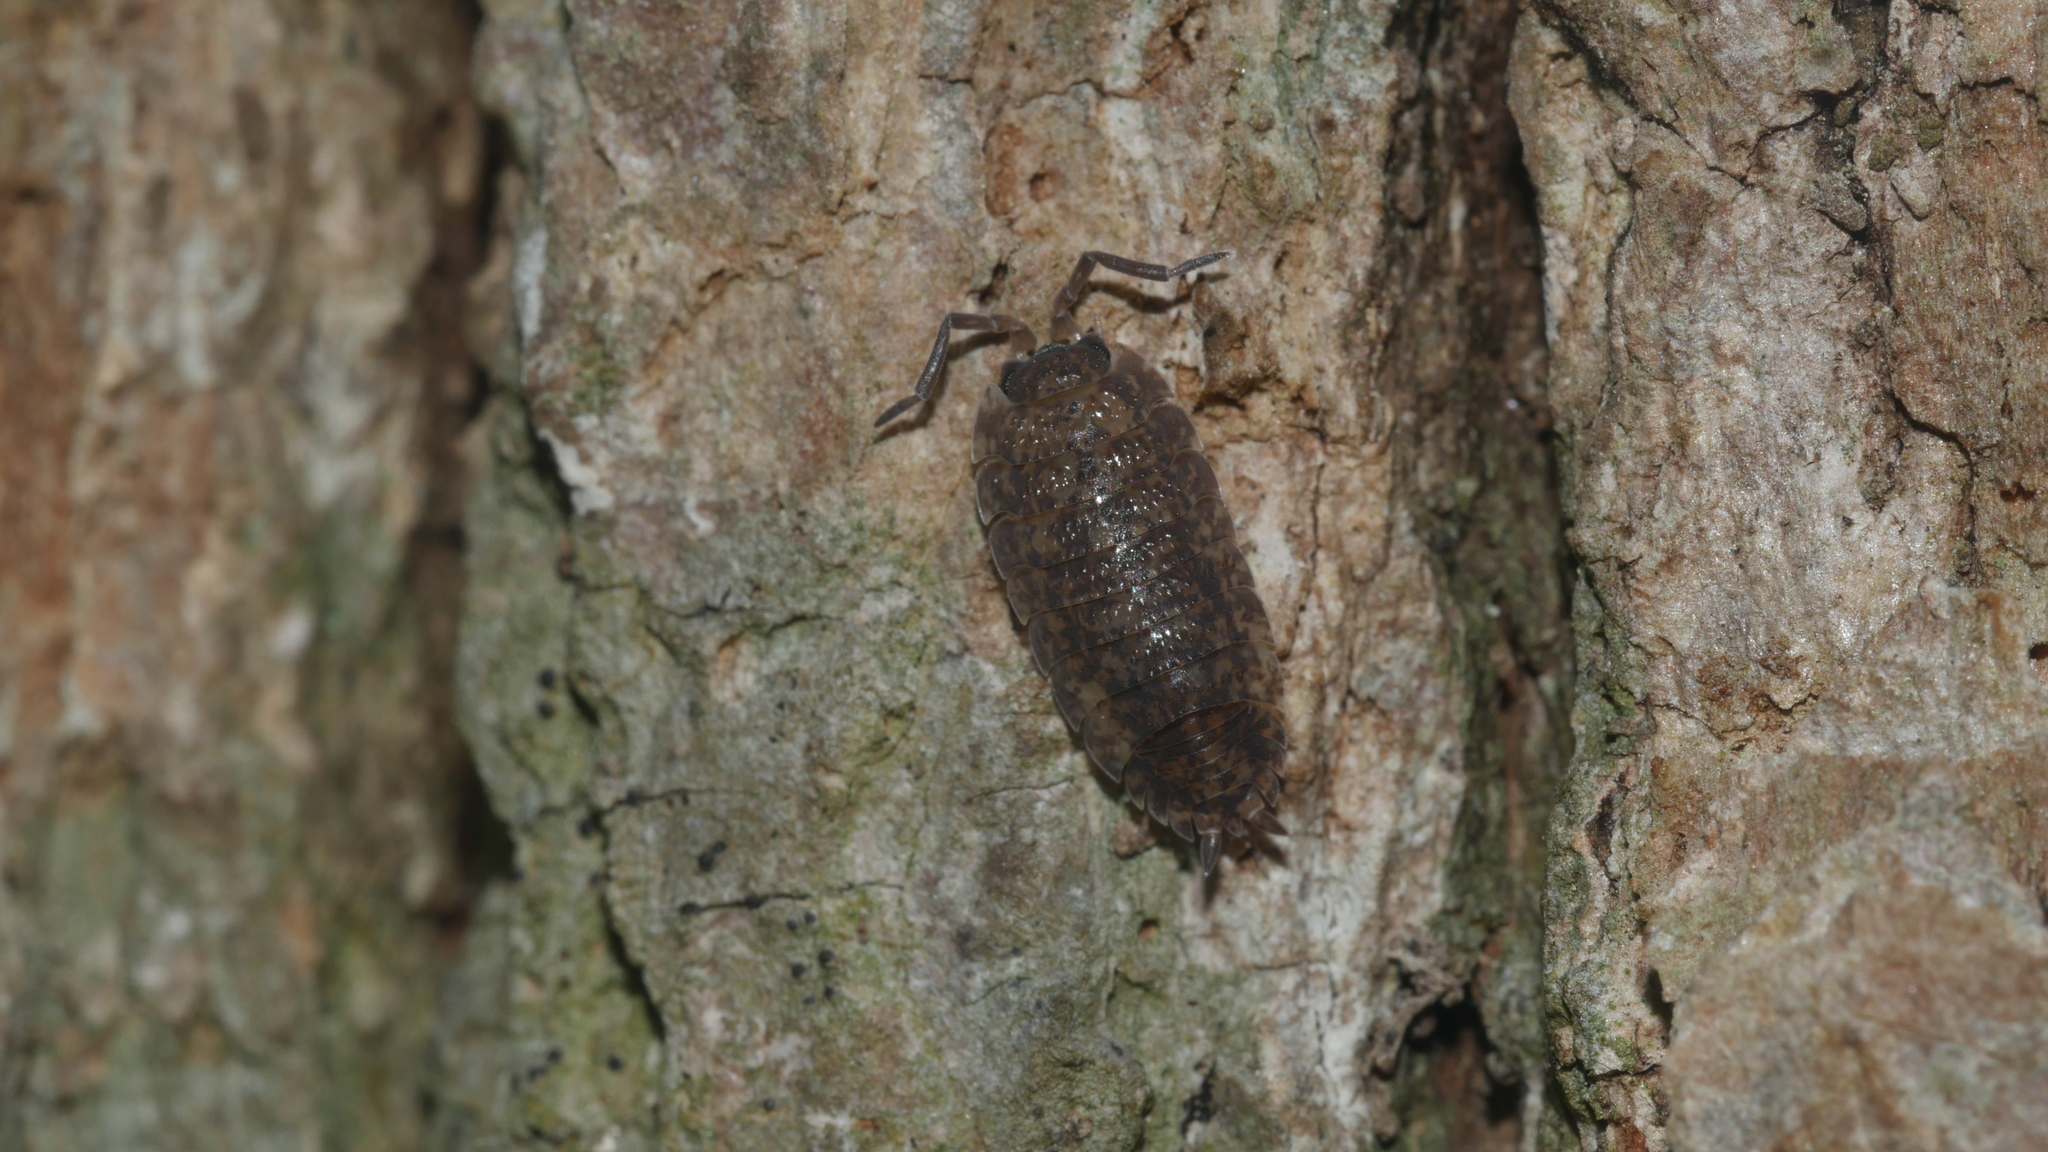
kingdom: Animalia
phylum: Arthropoda
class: Malacostraca
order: Isopoda
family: Porcellionidae
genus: Porcellio
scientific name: Porcellio scaber
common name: Common rough woodlouse
